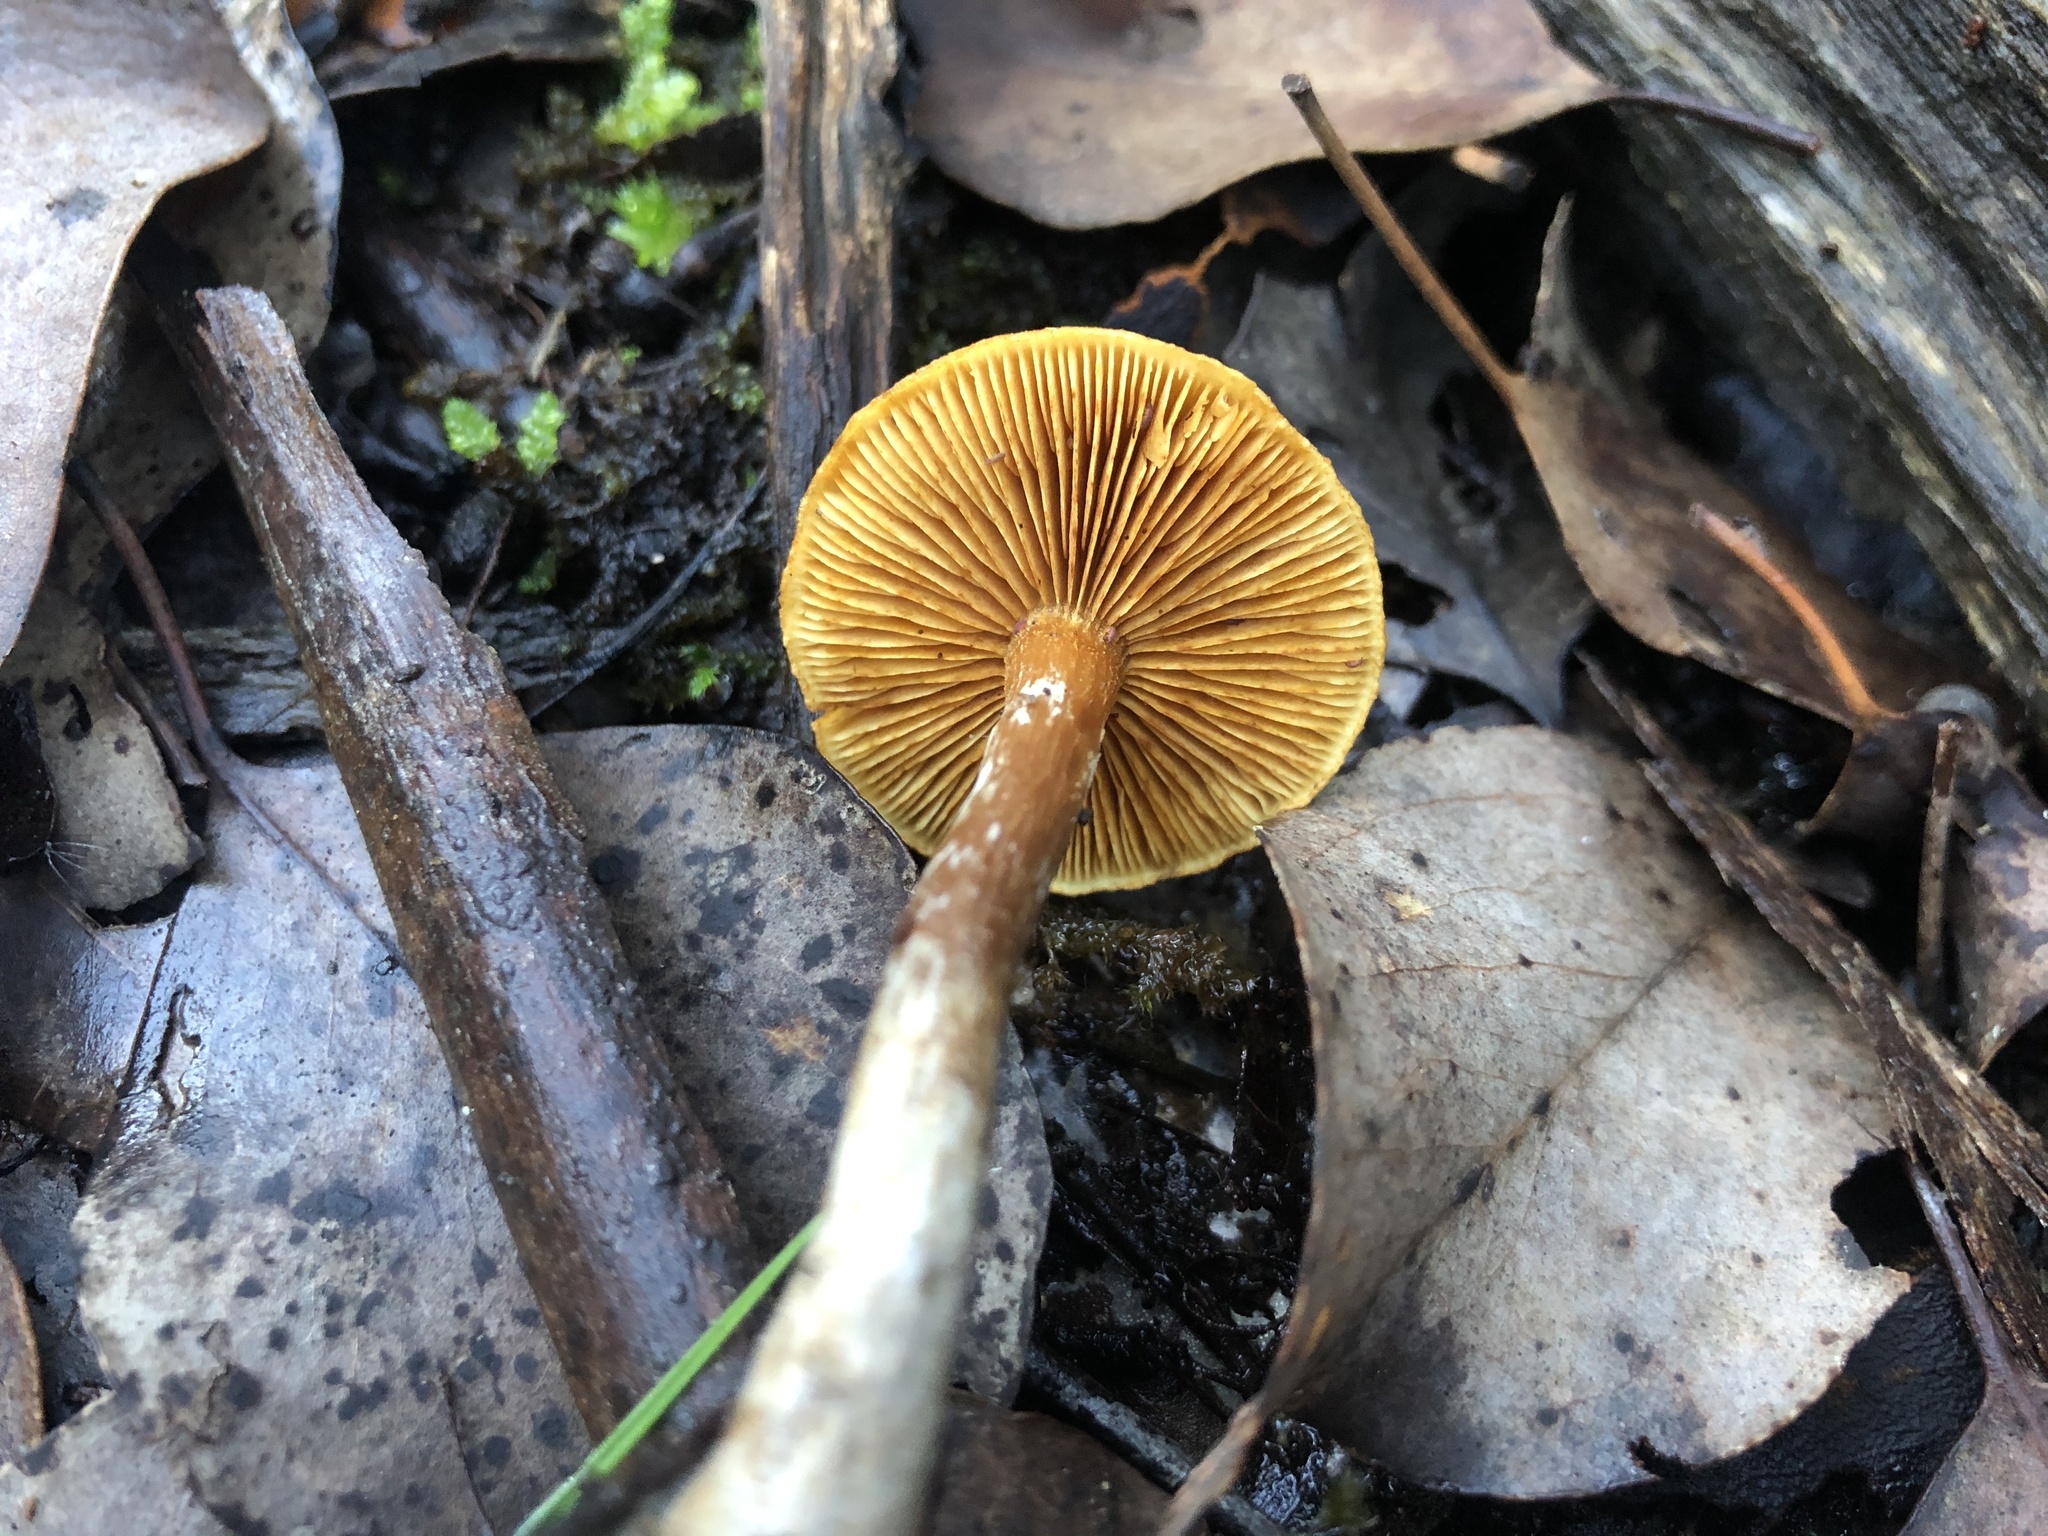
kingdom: Fungi
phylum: Basidiomycota
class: Agaricomycetes
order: Agaricales
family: Hymenogastraceae
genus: Gymnopilus
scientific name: Gymnopilus allantopus
